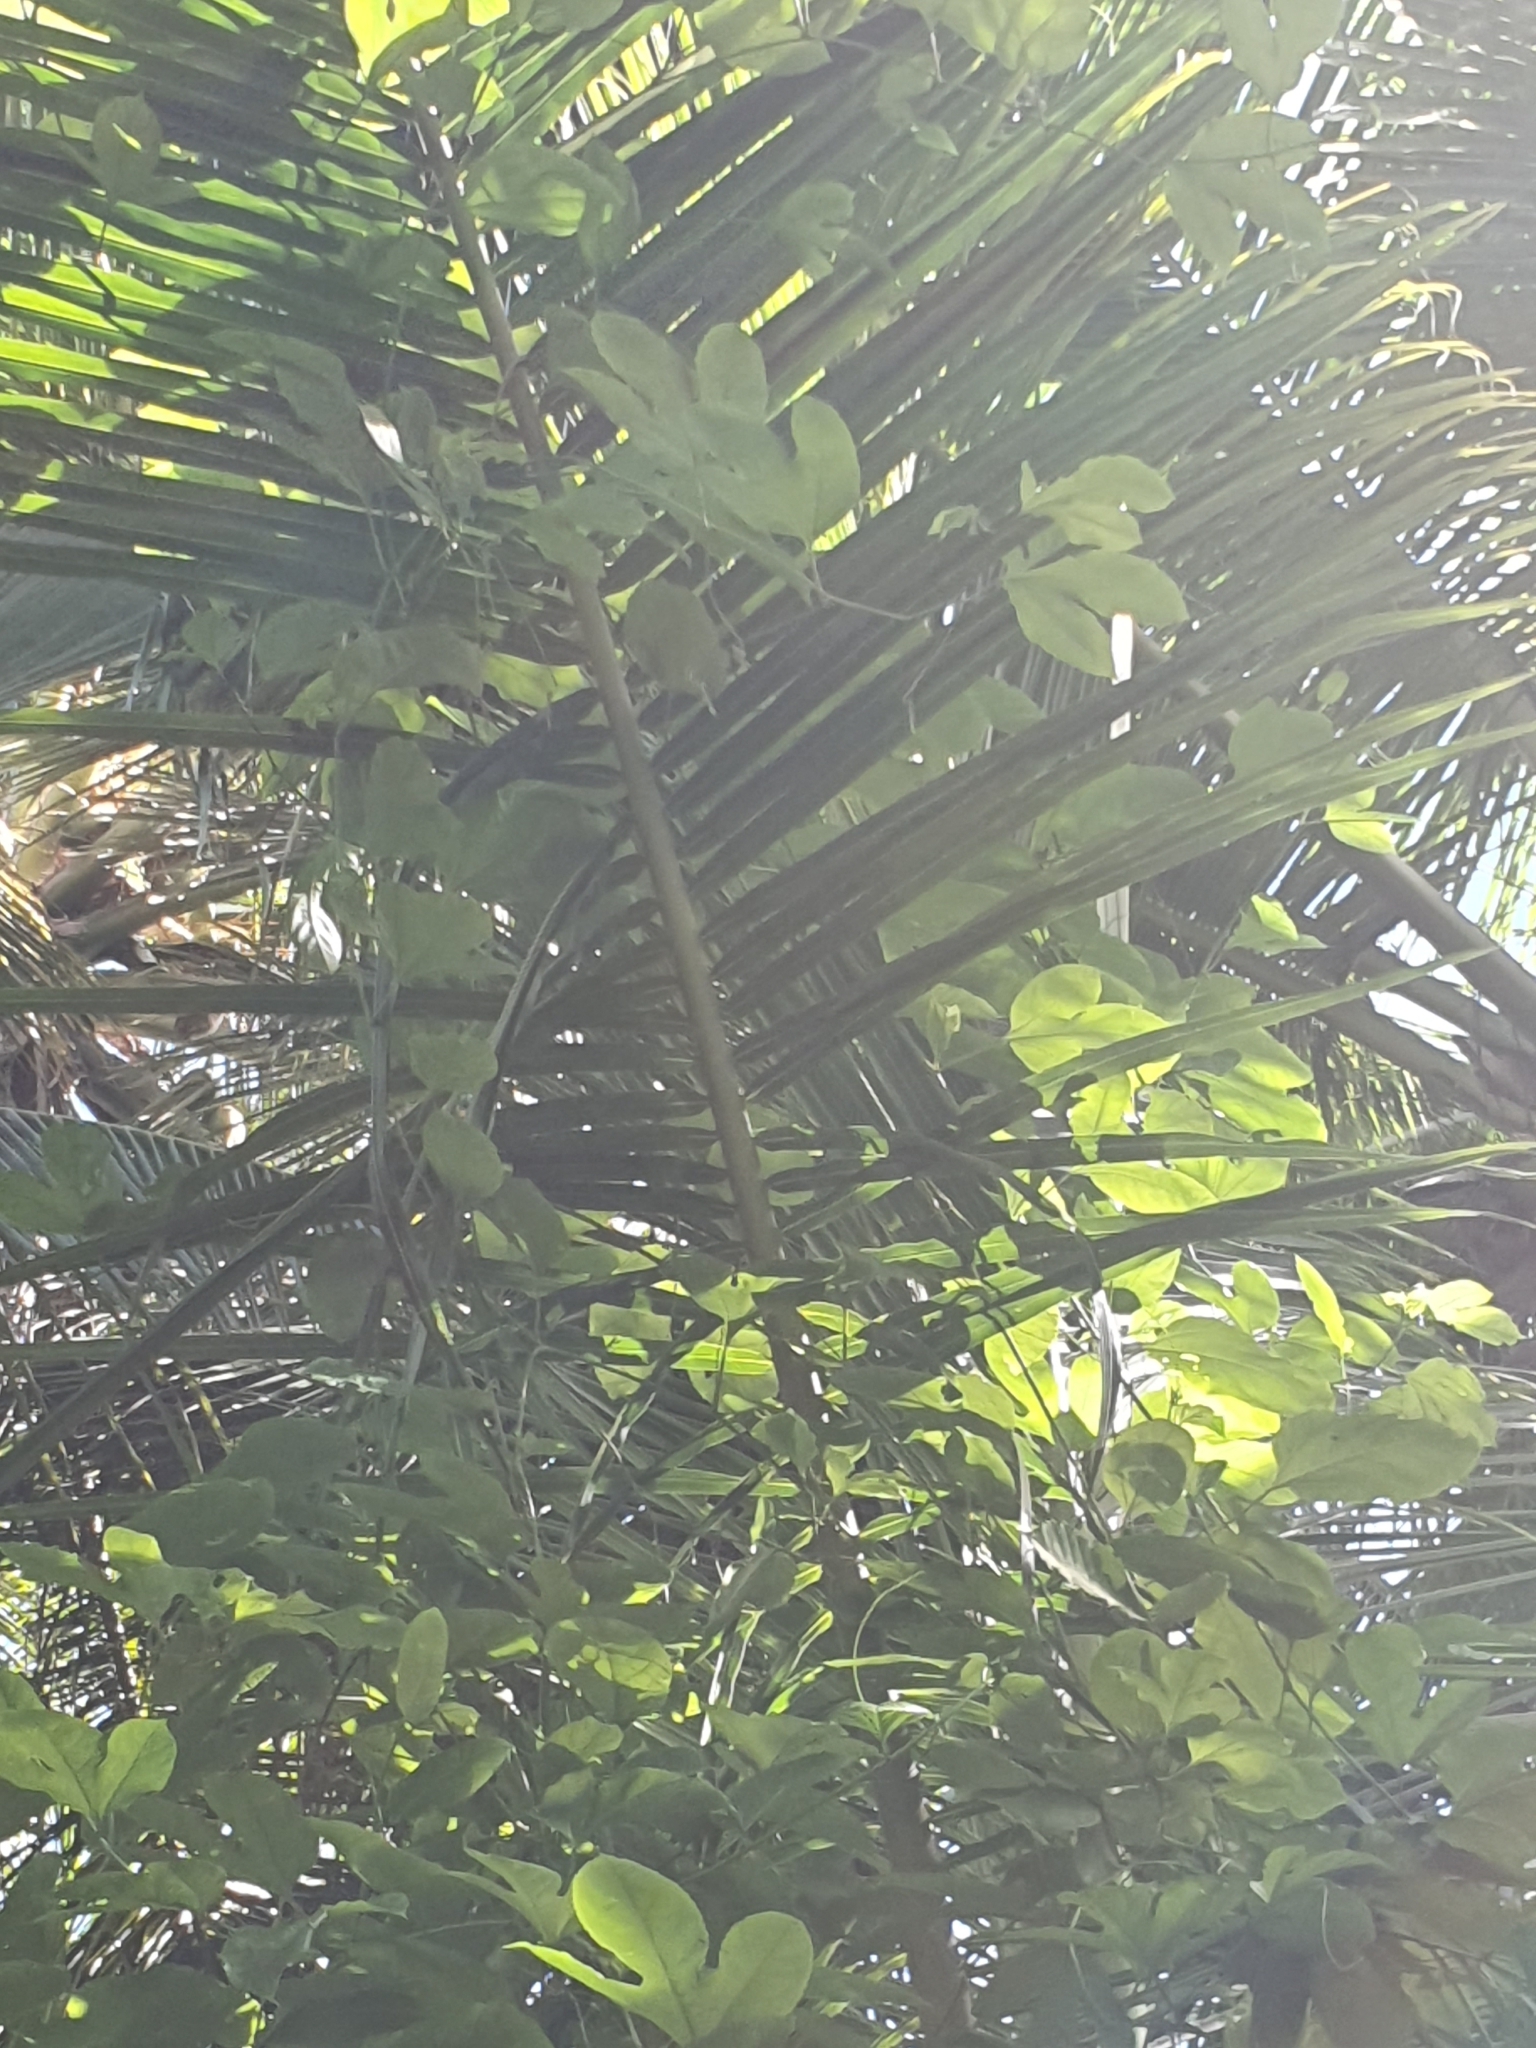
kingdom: Plantae
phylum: Tracheophyta
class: Magnoliopsida
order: Malpighiales
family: Passifloraceae
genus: Passiflora
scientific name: Passiflora edulis
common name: Purple granadilla
